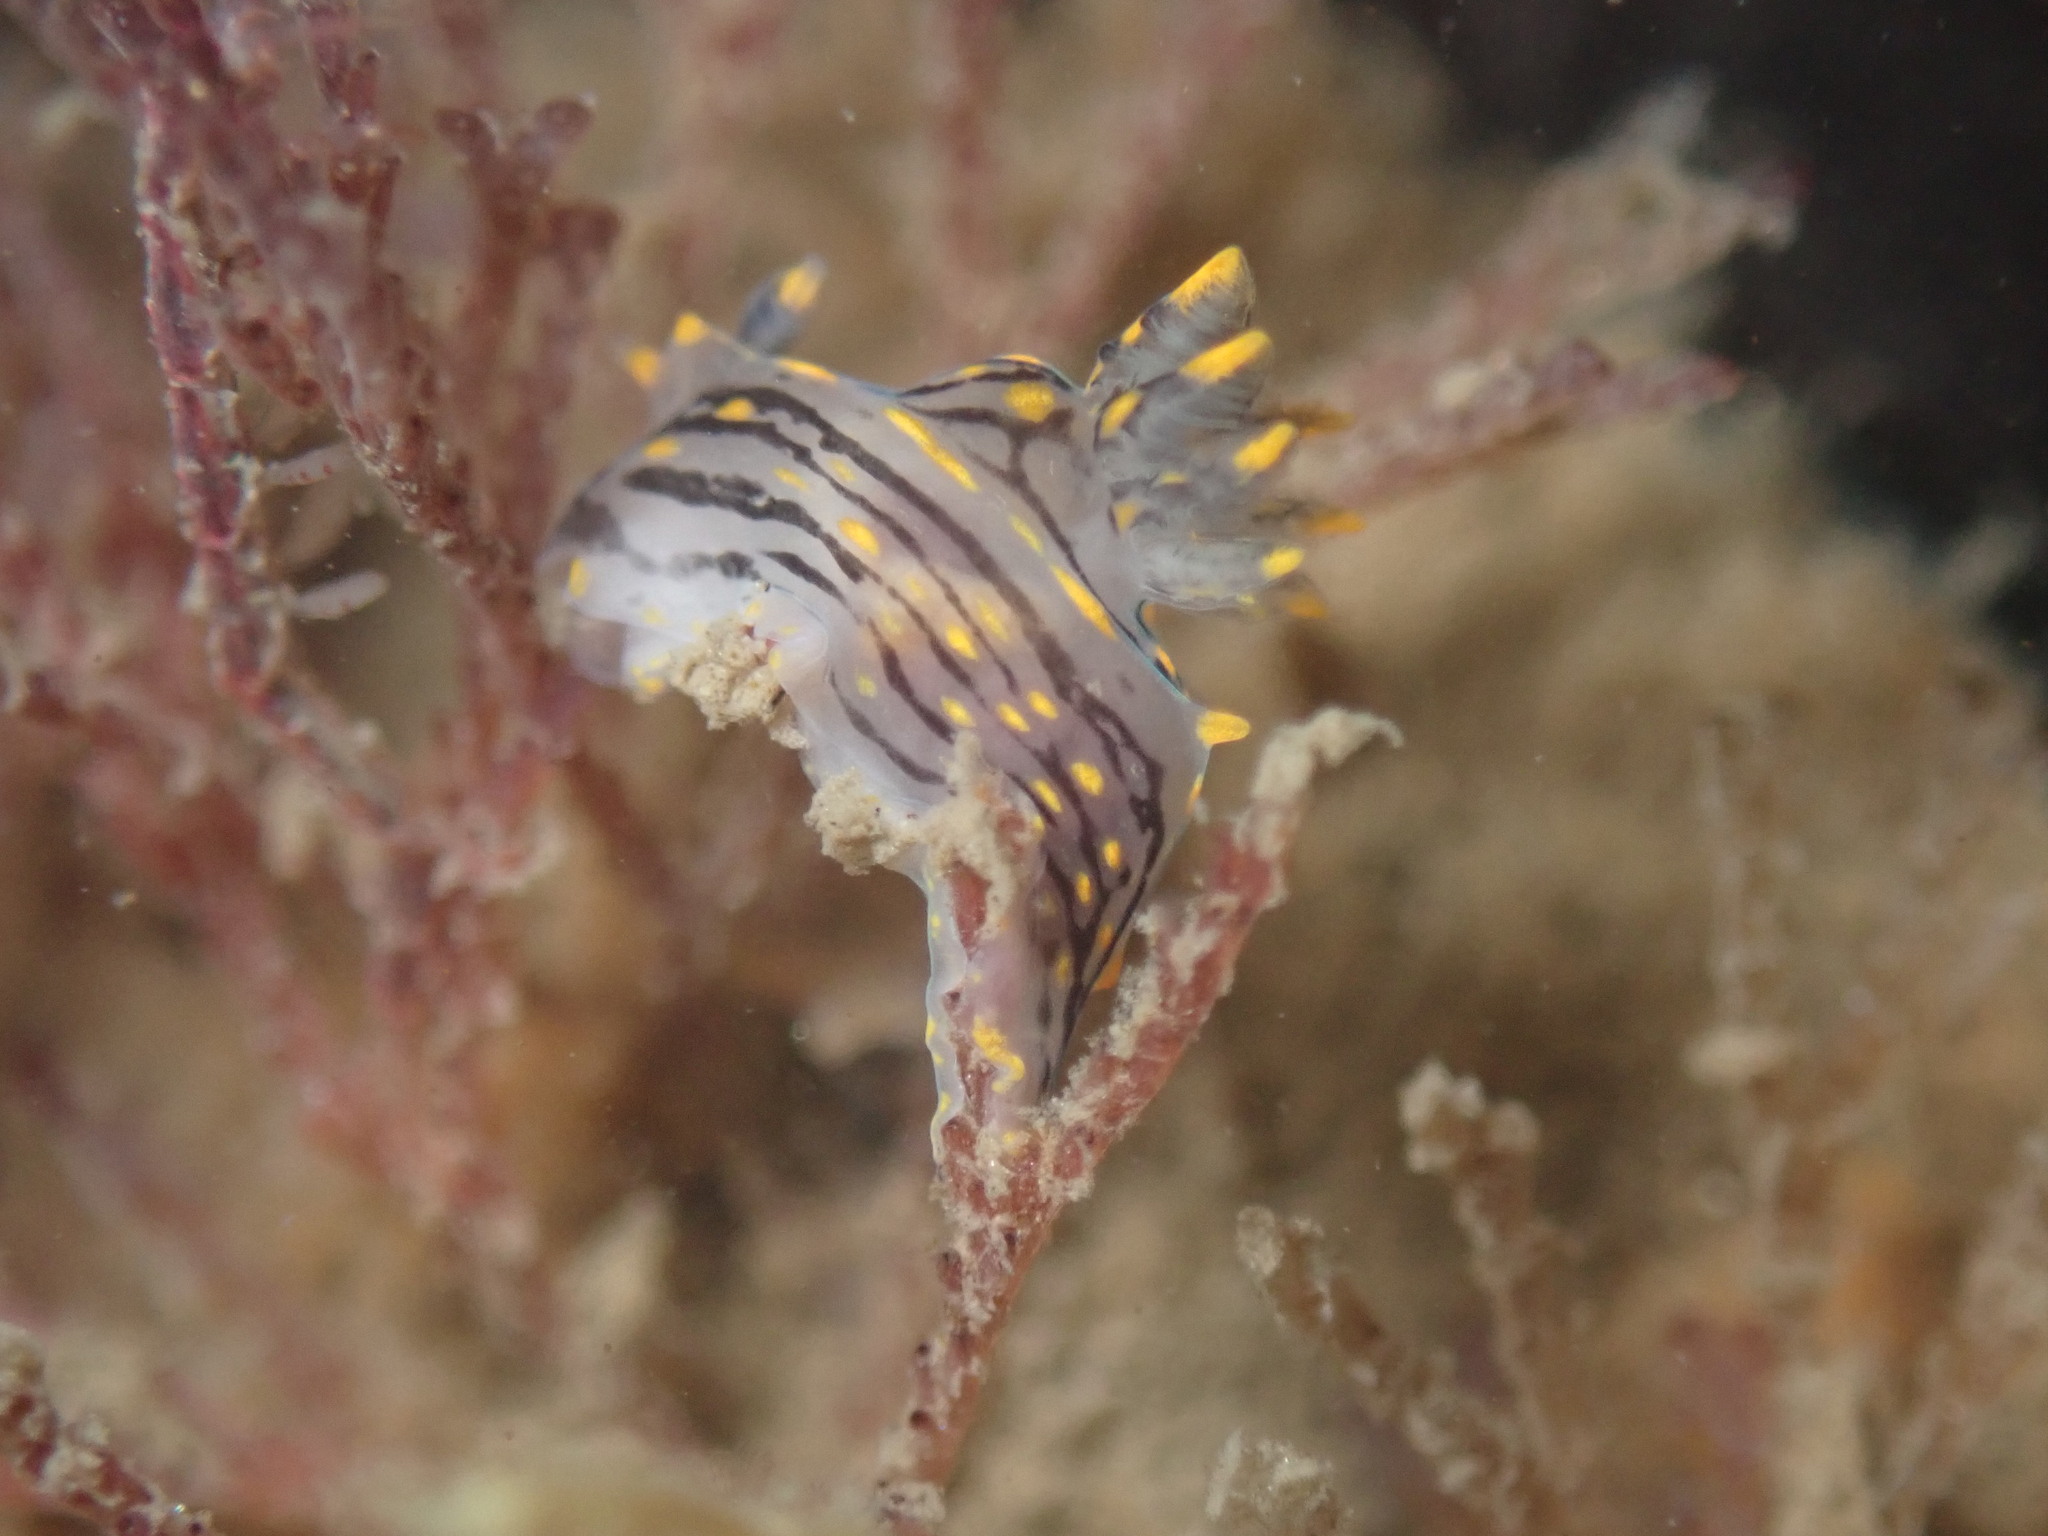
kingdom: Animalia
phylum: Mollusca
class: Gastropoda
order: Nudibranchia
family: Polyceridae
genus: Polycera
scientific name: Polycera atra
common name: Orange-spike polycera
